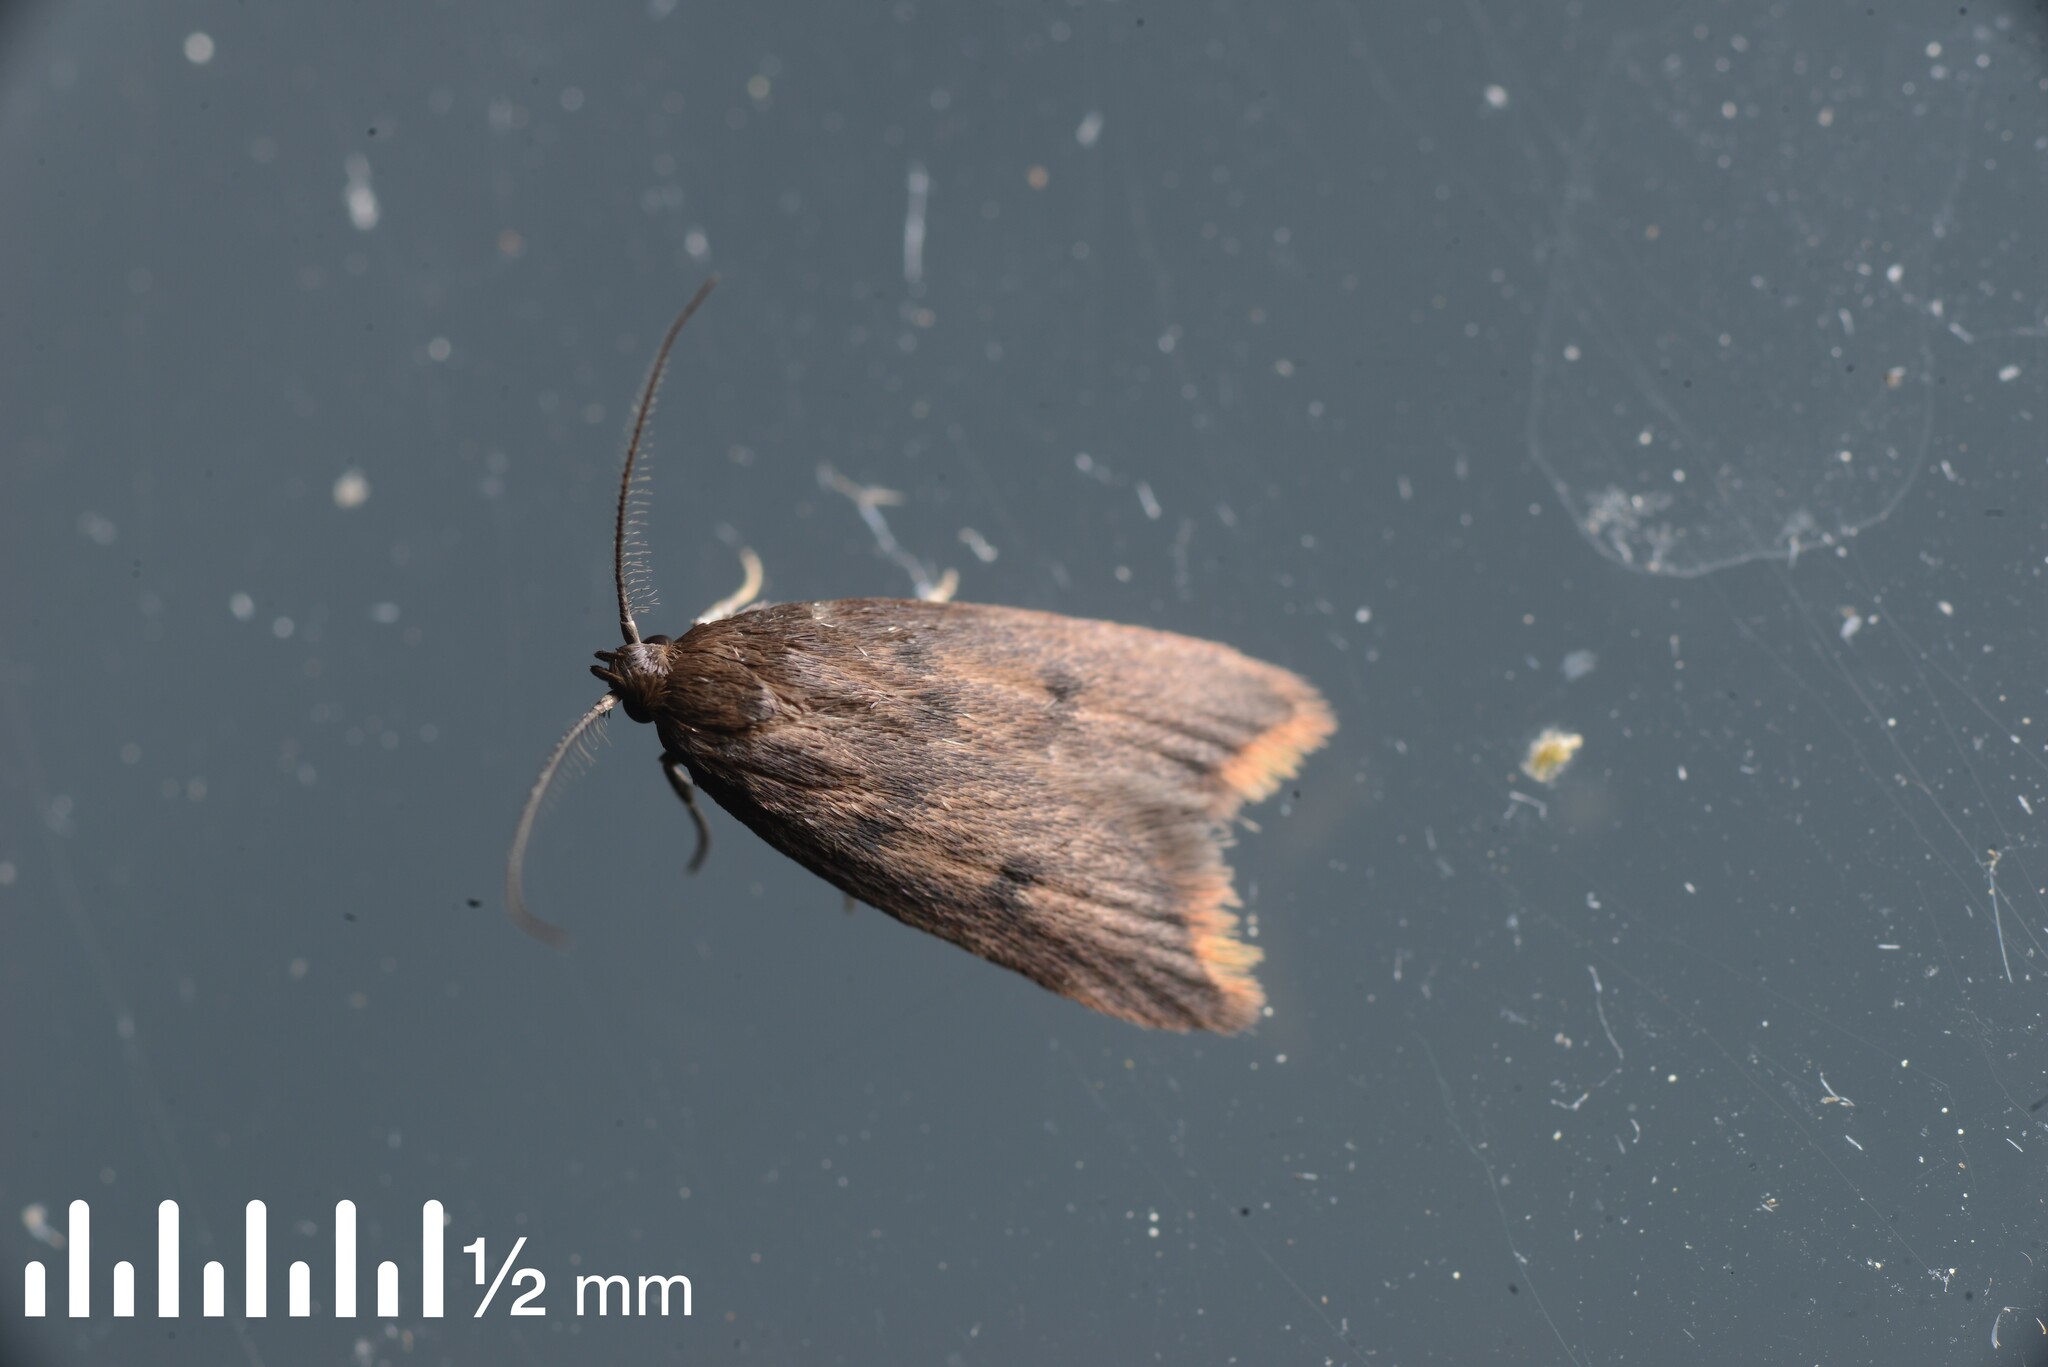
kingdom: Animalia
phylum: Arthropoda
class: Insecta
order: Lepidoptera
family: Oecophoridae
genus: Tachystola
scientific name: Tachystola acroxantha
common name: Ruddy streak
